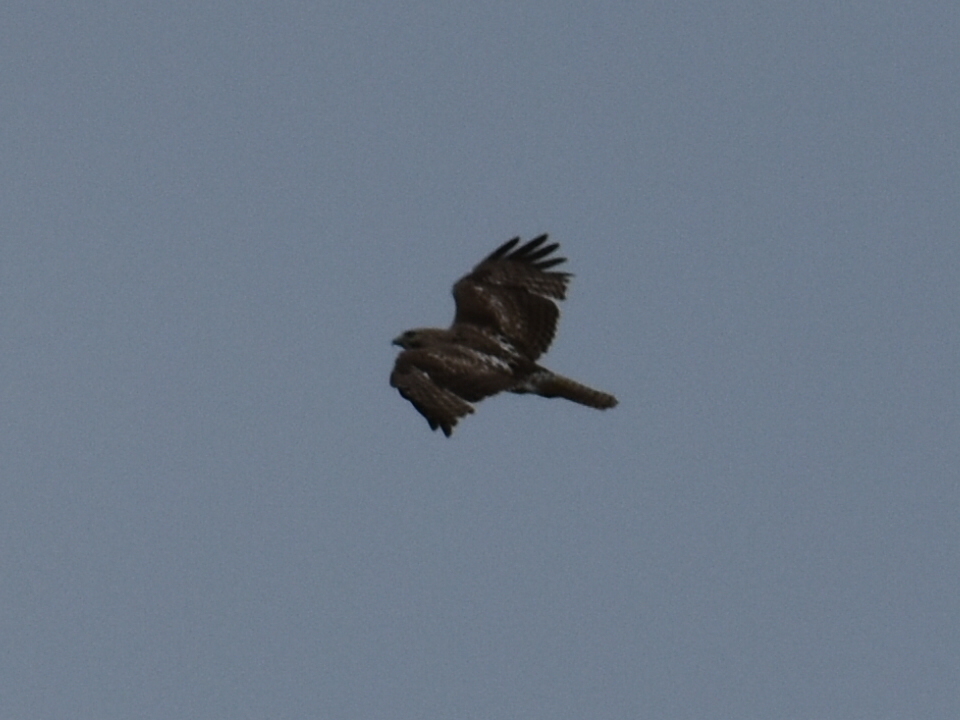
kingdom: Animalia
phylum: Chordata
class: Aves
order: Accipitriformes
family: Accipitridae
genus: Buteo
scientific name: Buteo jamaicensis
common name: Red-tailed hawk
